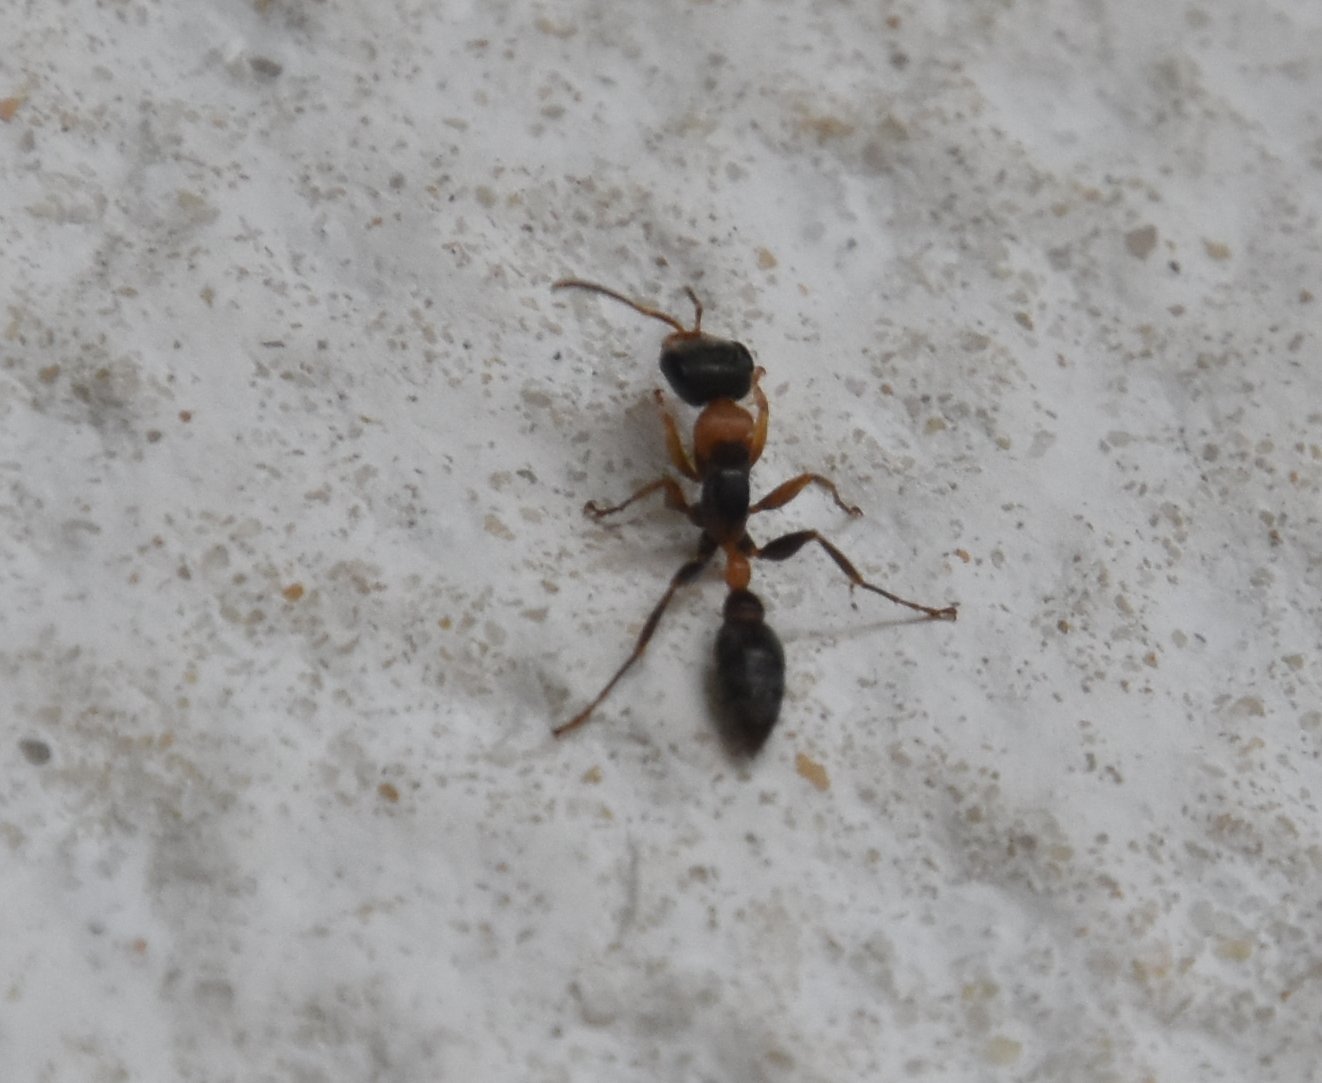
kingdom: Animalia
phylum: Arthropoda
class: Insecta
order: Hymenoptera
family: Formicidae
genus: Pseudomyrmex
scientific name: Pseudomyrmex gracilis
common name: Graceful twig ant
